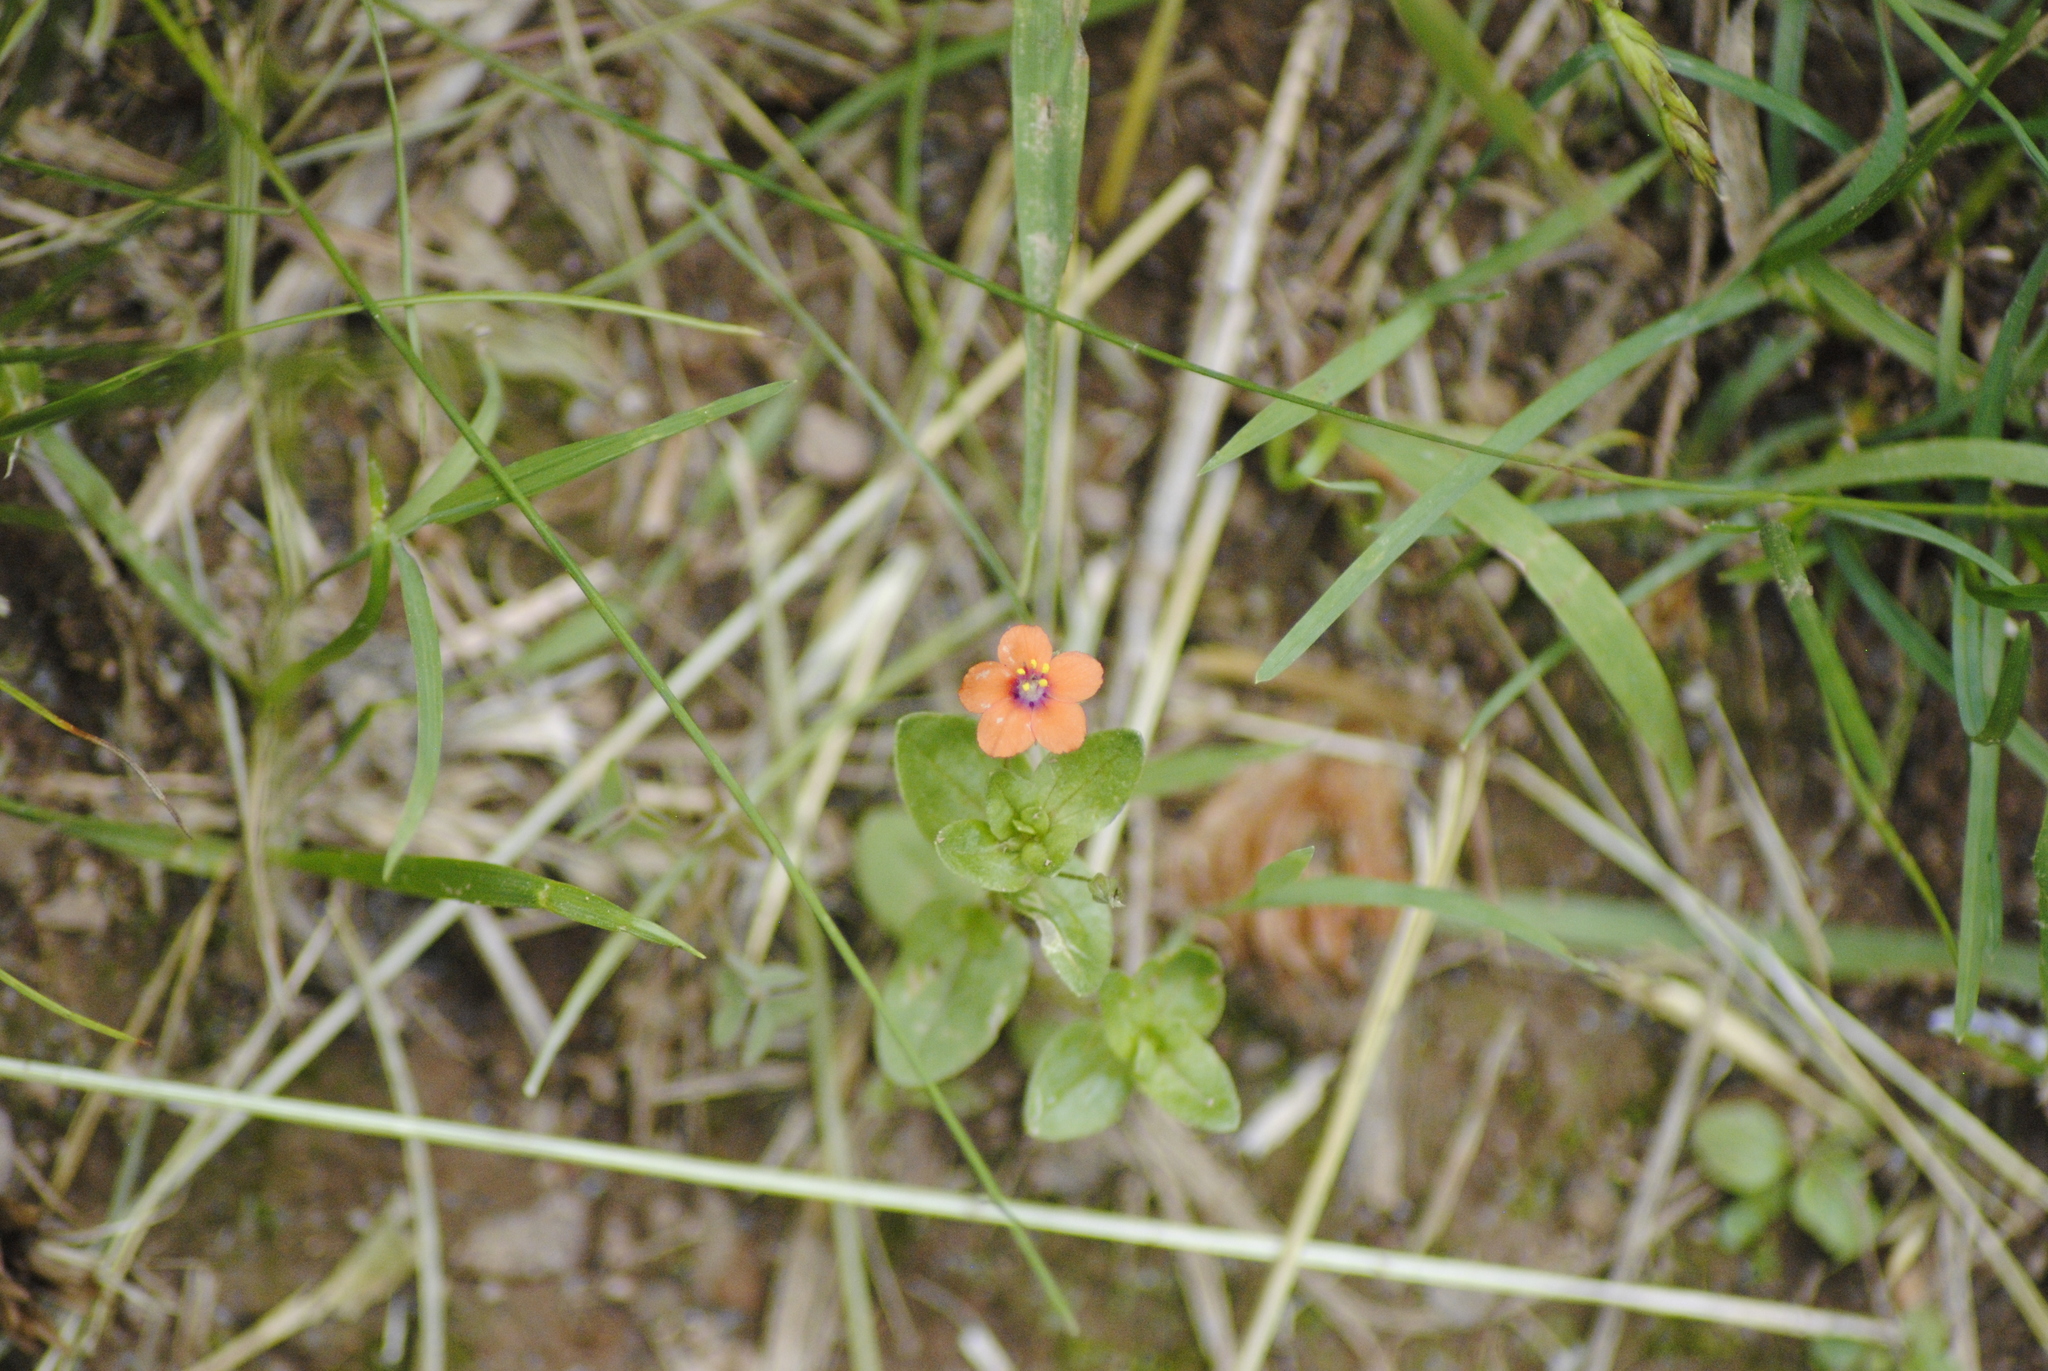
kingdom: Plantae
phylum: Tracheophyta
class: Magnoliopsida
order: Ericales
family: Primulaceae
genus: Lysimachia
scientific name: Lysimachia arvensis
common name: Scarlet pimpernel
